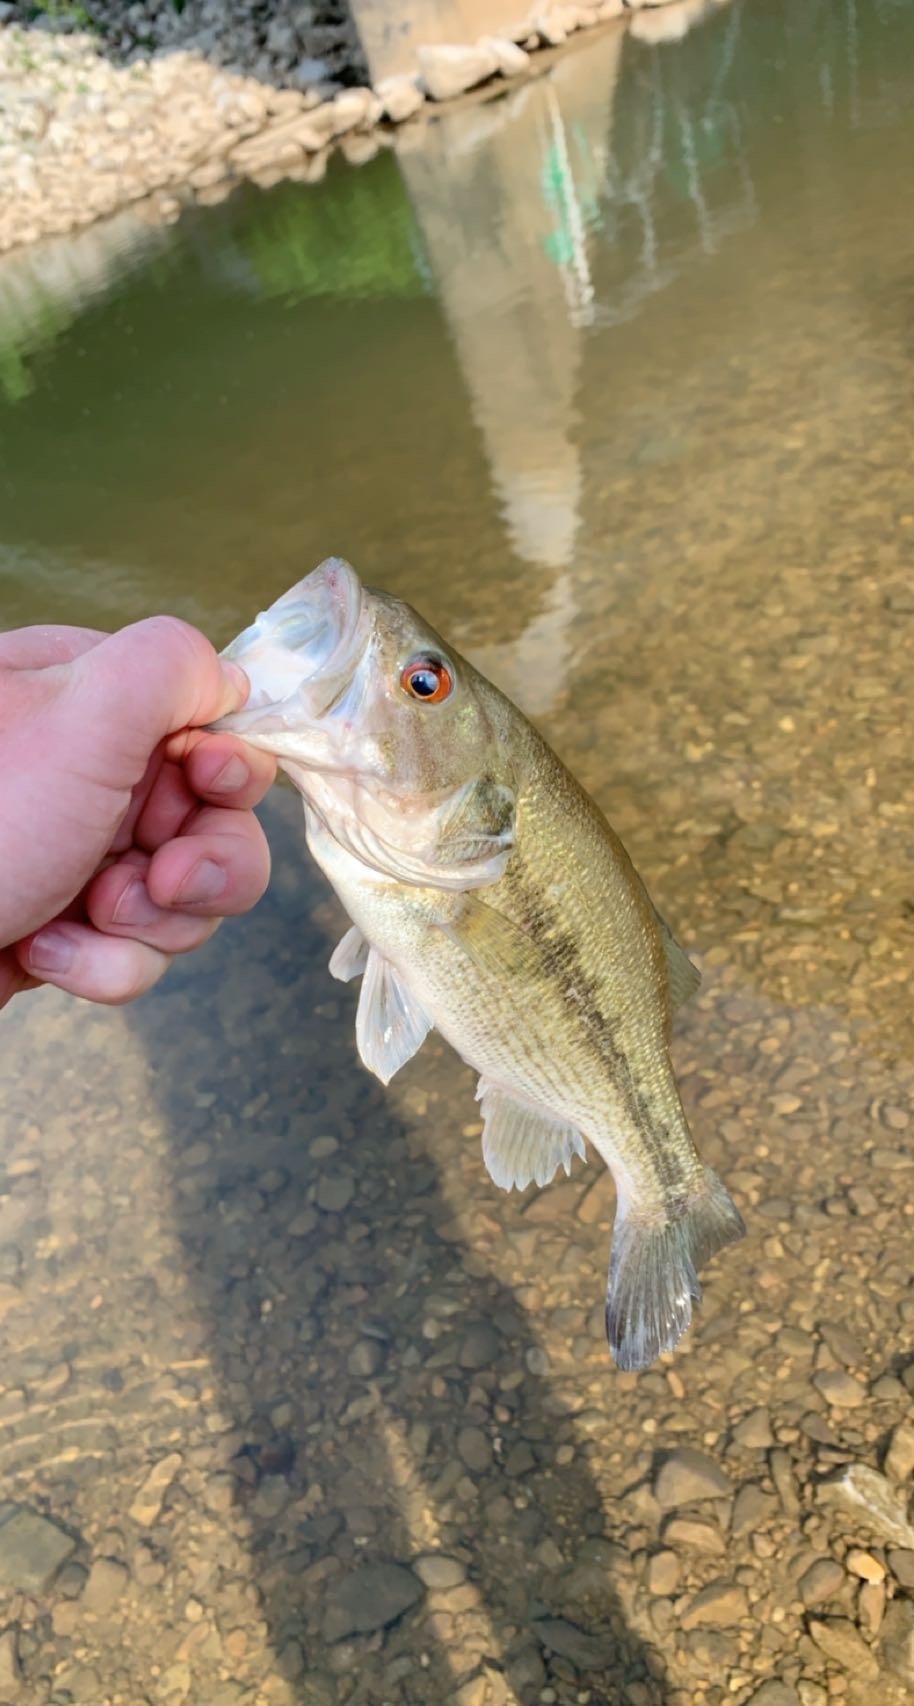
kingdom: Animalia
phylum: Chordata
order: Perciformes
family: Centrarchidae
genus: Micropterus
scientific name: Micropterus punctulatus
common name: Spotted bass
